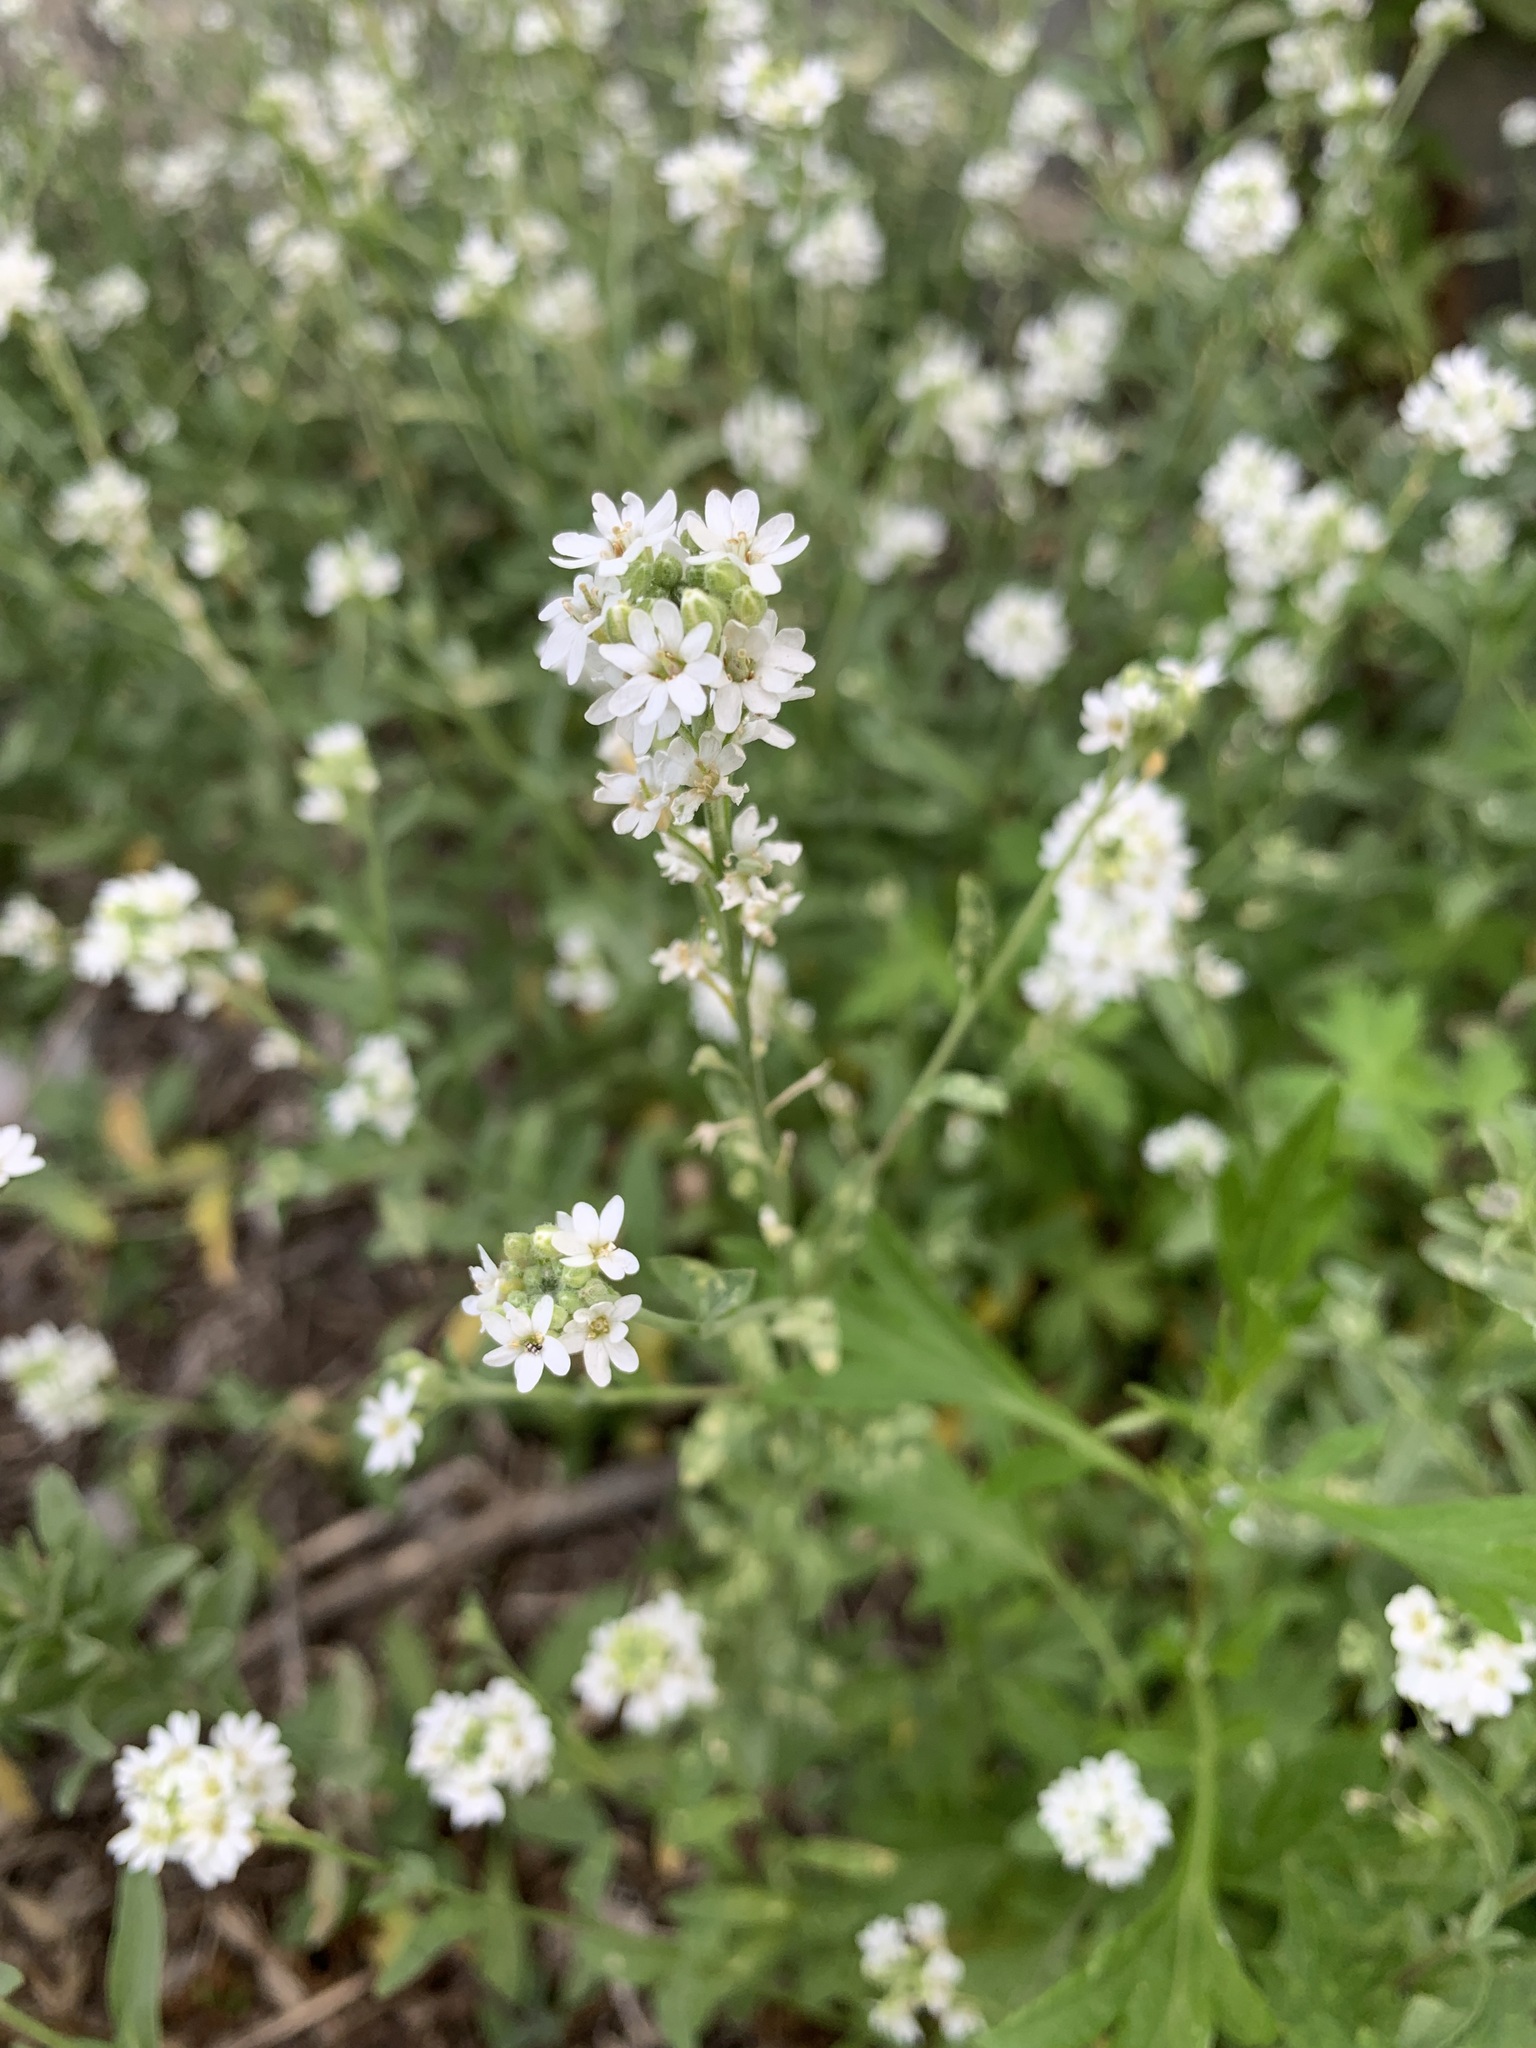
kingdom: Plantae
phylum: Tracheophyta
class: Magnoliopsida
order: Brassicales
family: Brassicaceae
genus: Berteroa
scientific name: Berteroa incana
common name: Hoary alison
